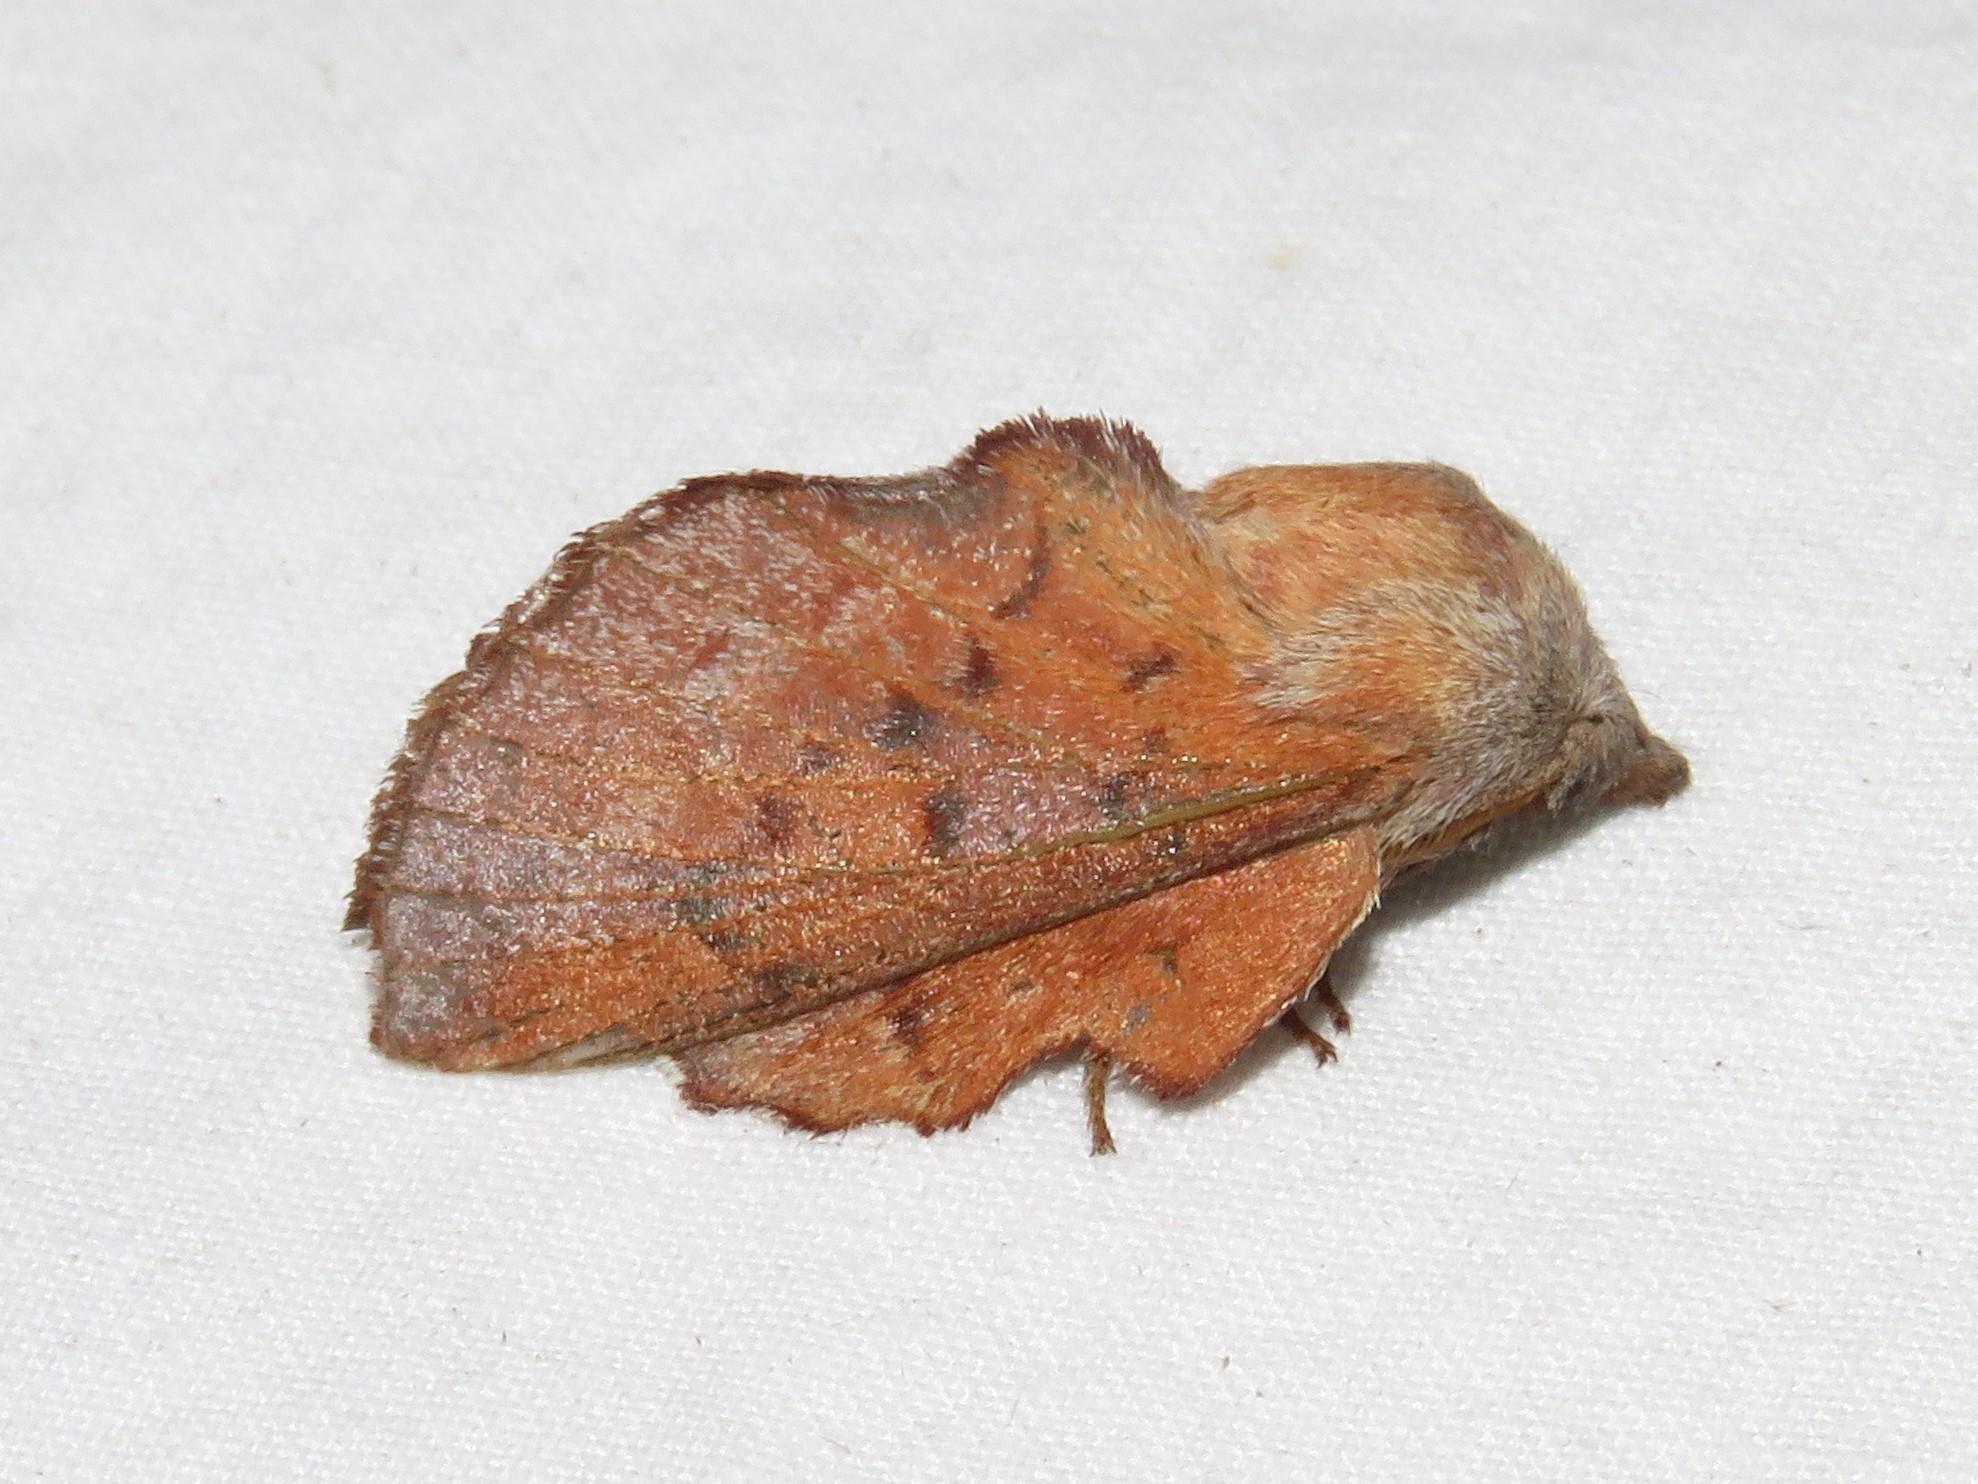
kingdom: Animalia
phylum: Arthropoda
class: Insecta
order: Lepidoptera
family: Lasiocampidae
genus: Phyllodesma
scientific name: Phyllodesma americana
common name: American lappet moth
